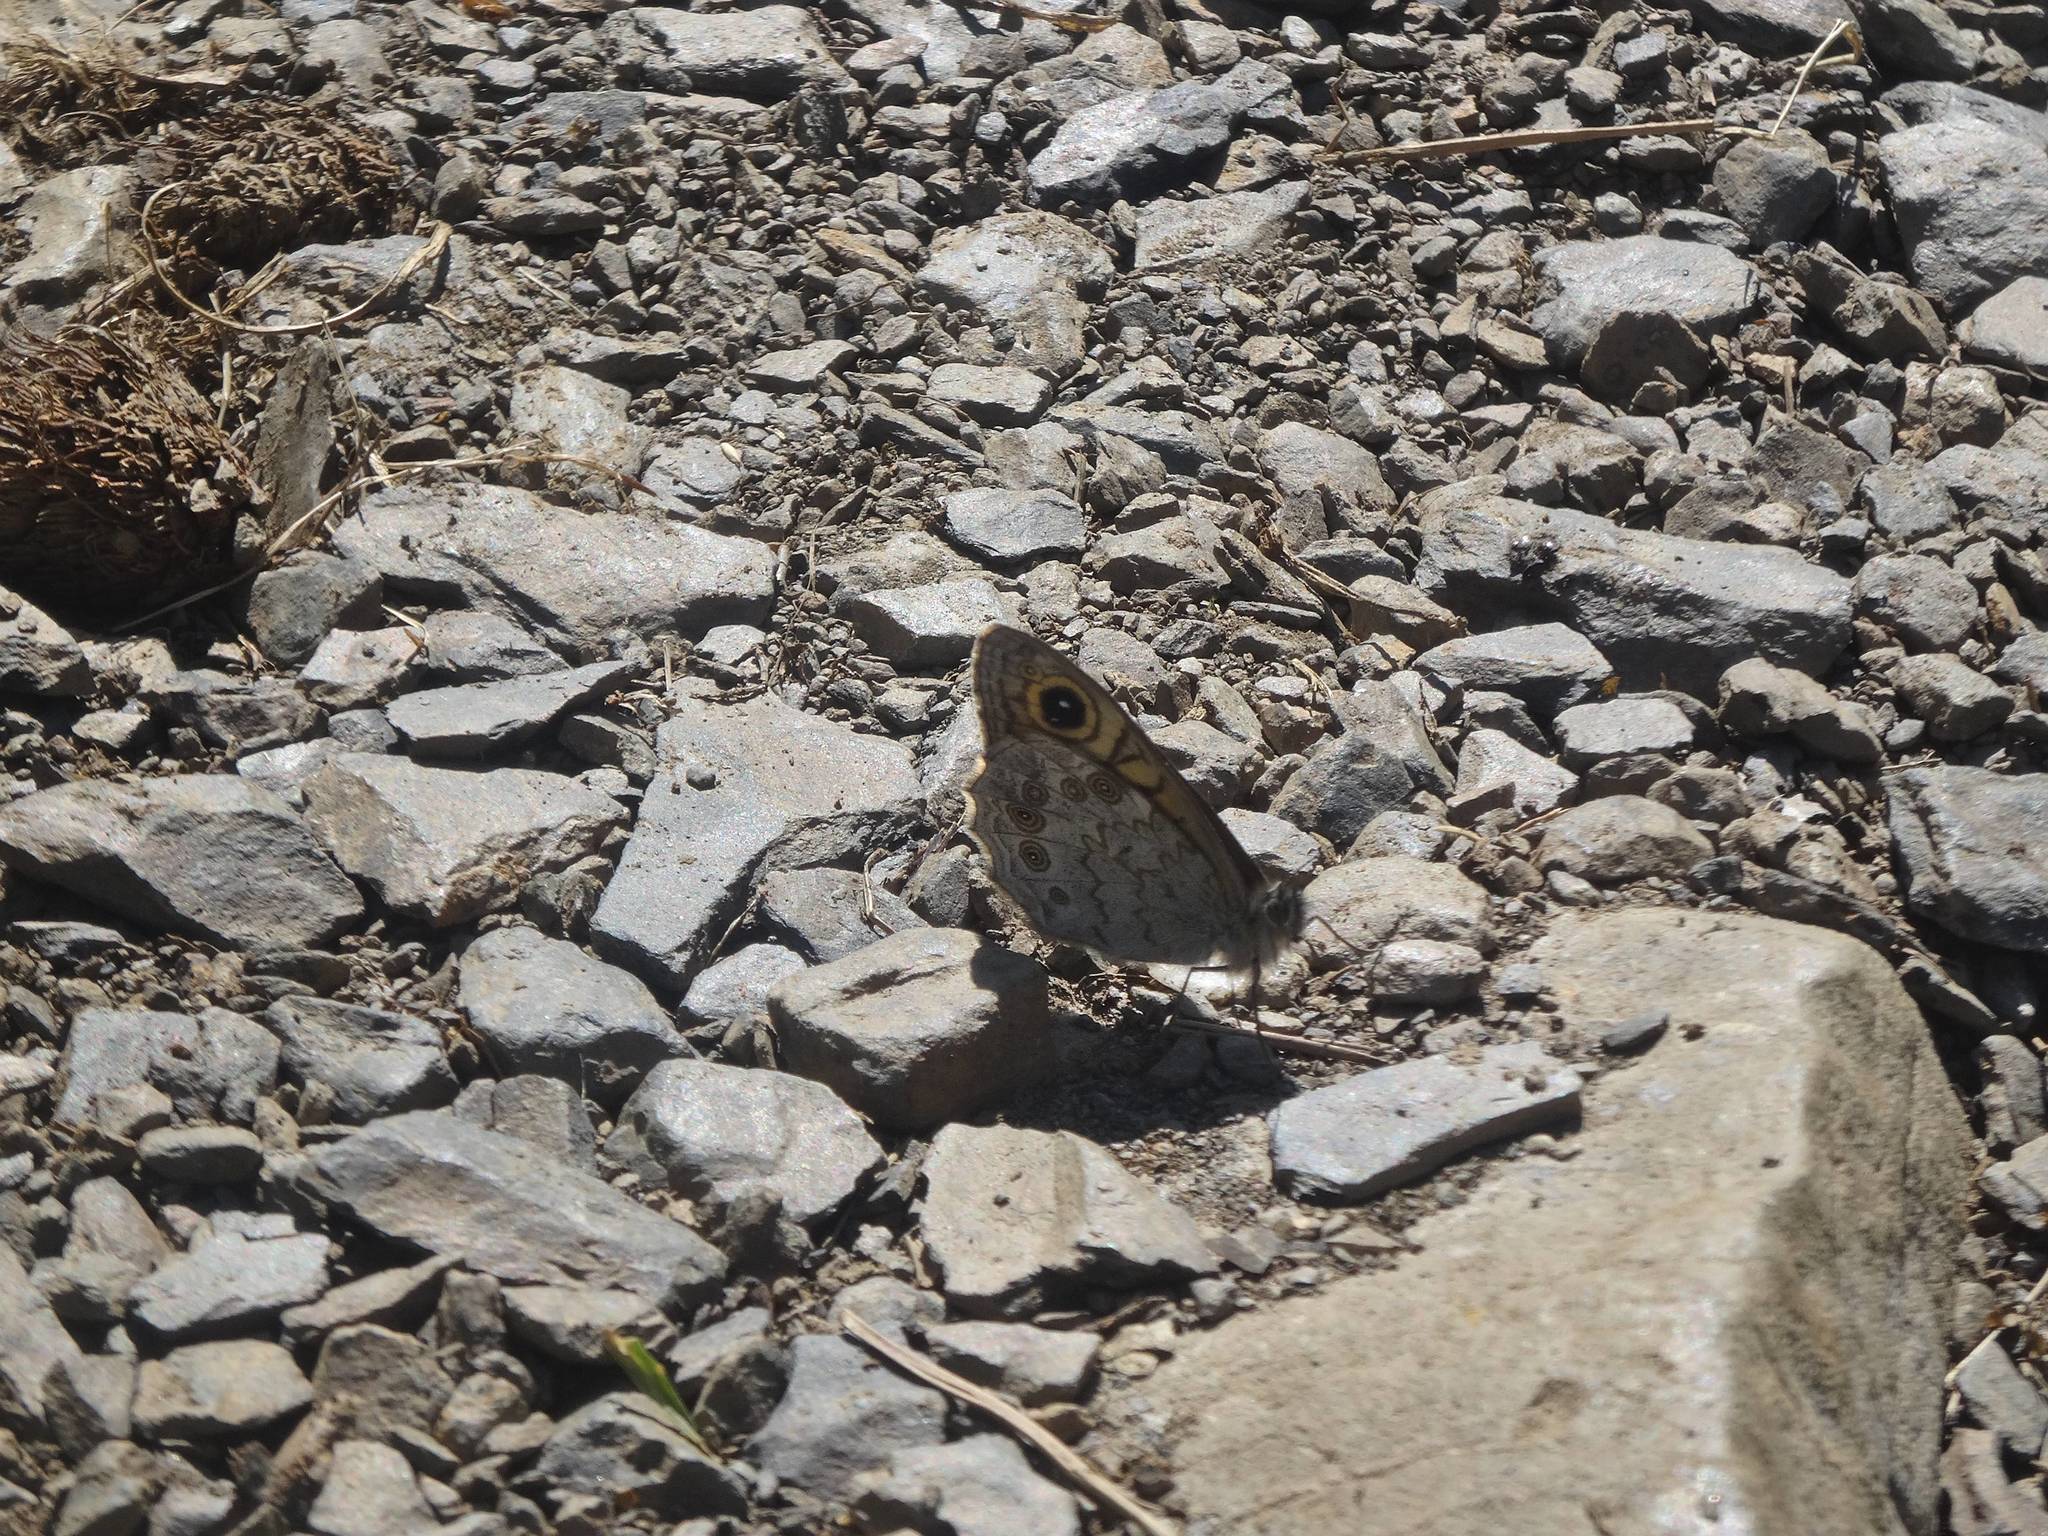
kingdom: Animalia
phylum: Arthropoda
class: Insecta
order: Lepidoptera
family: Nymphalidae
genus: Pararge
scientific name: Pararge Lasiommata maera
